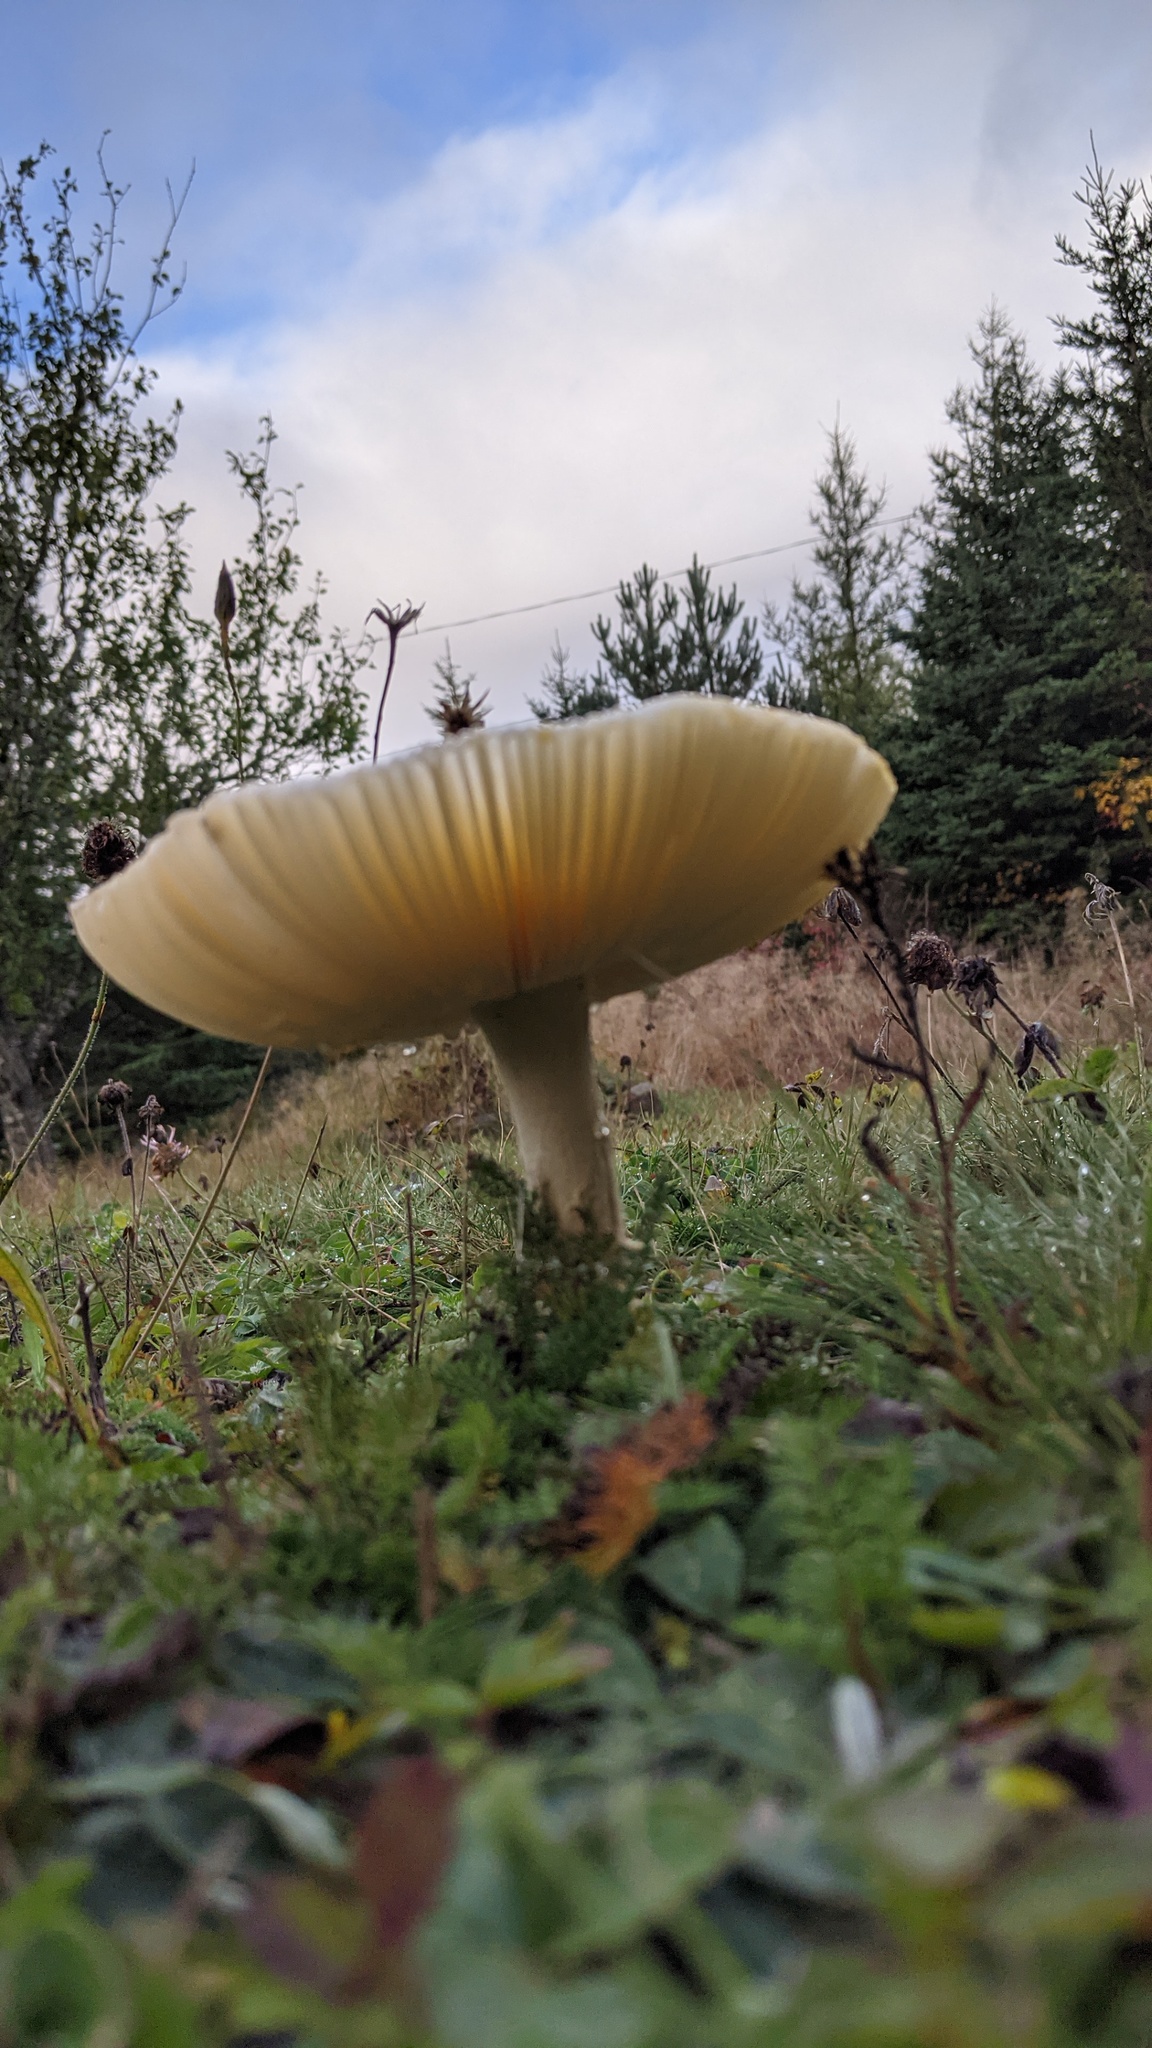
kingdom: Fungi
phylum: Basidiomycota
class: Agaricomycetes
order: Agaricales
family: Amanitaceae
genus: Amanita
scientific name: Amanita muscaria
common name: Fly agaric
